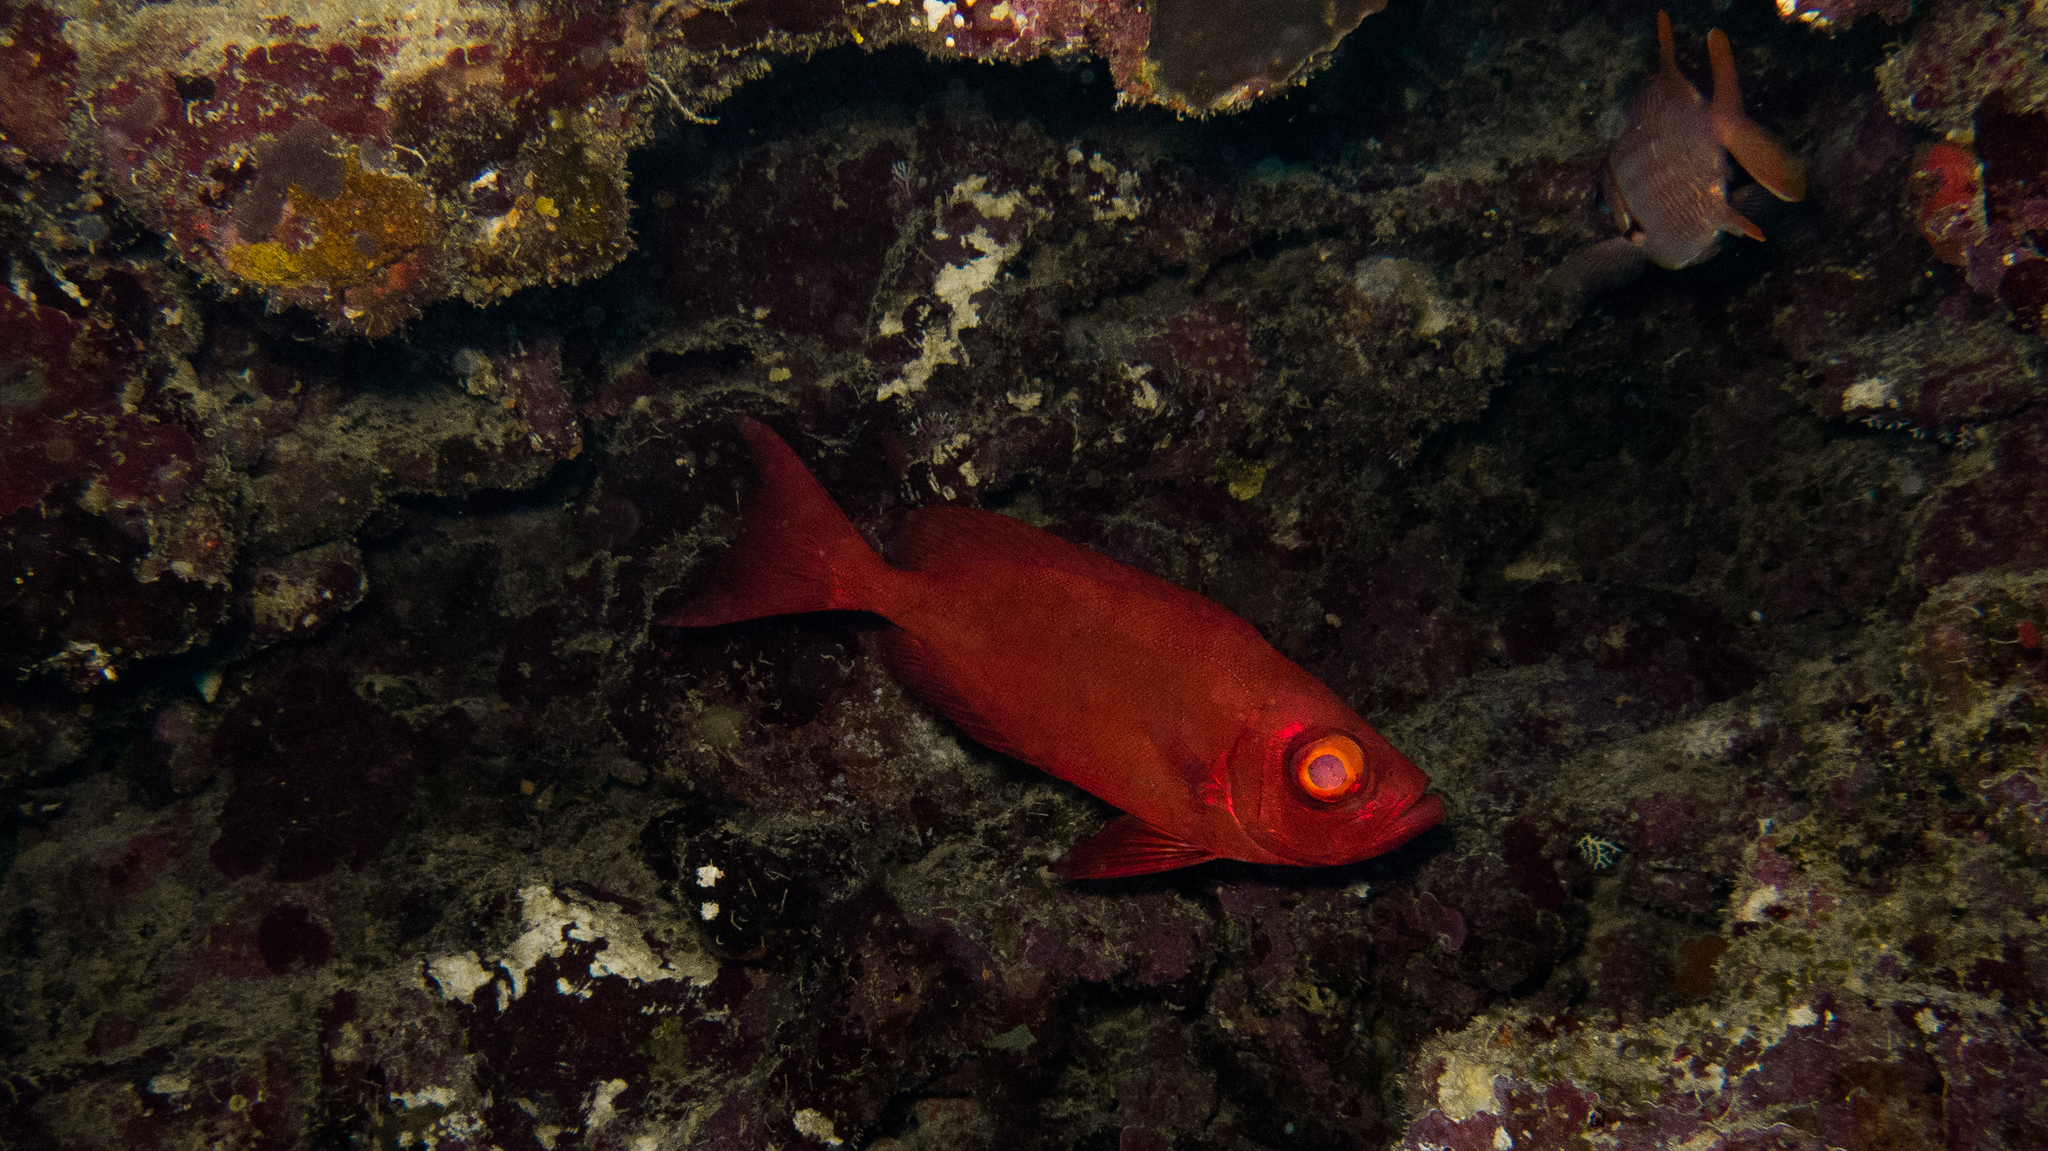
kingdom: Animalia
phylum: Chordata
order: Perciformes
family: Priacanthidae
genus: Priacanthus
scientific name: Priacanthus hamrur
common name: Moontail bullseye
